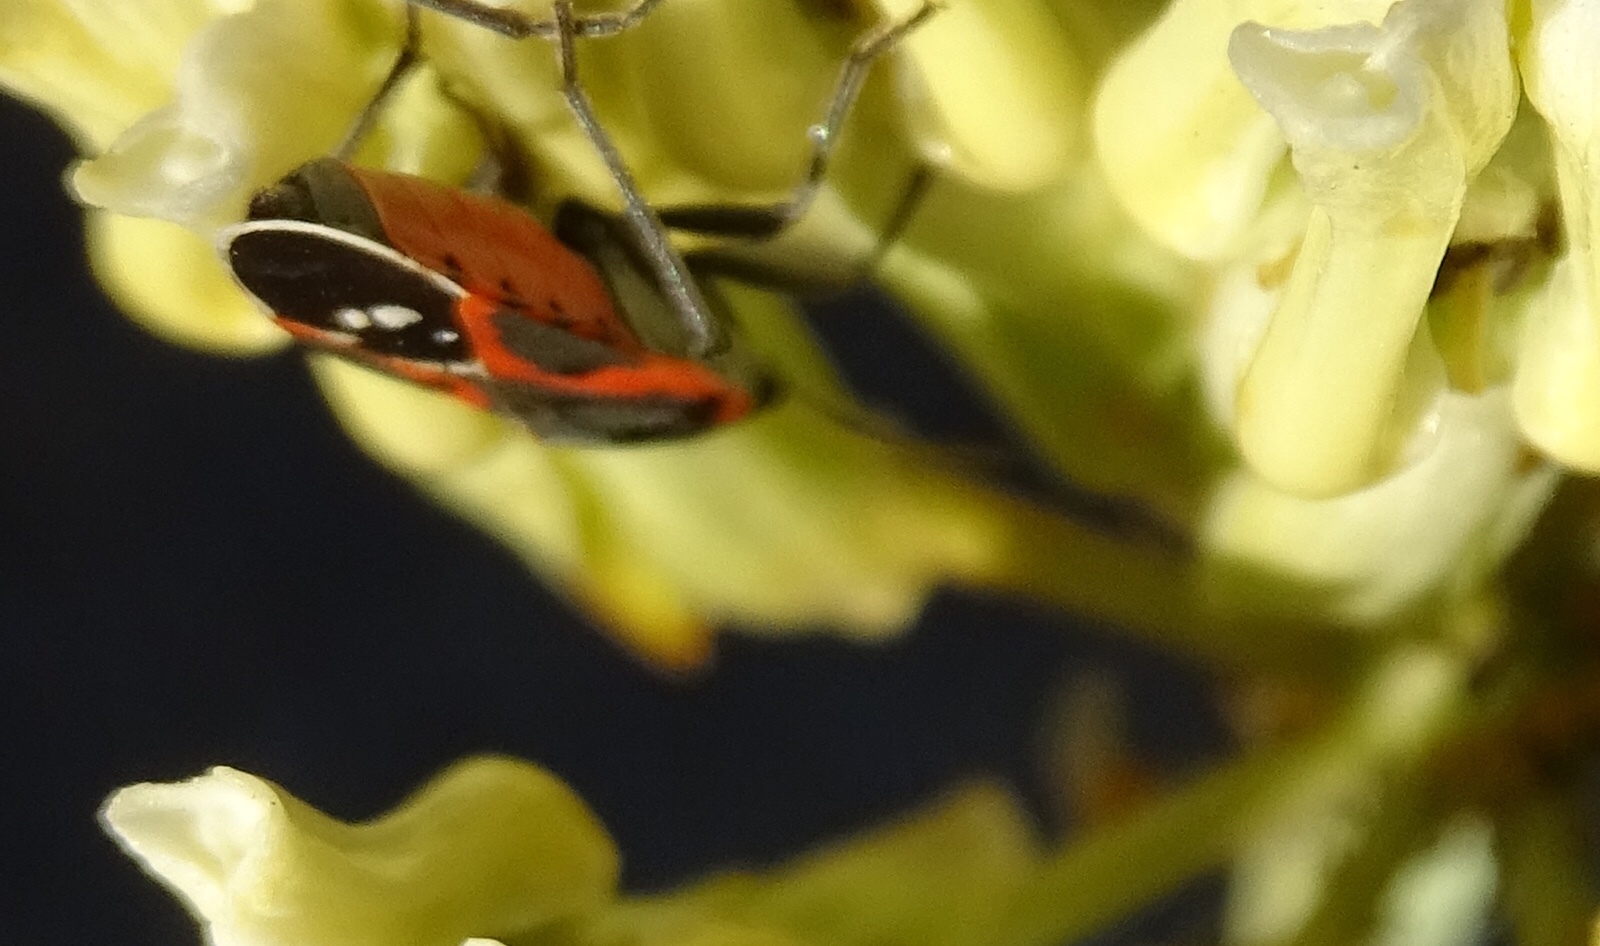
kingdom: Animalia
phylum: Arthropoda
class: Insecta
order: Hemiptera
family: Lygaeidae
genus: Lygaeus
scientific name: Lygaeus kalmii
